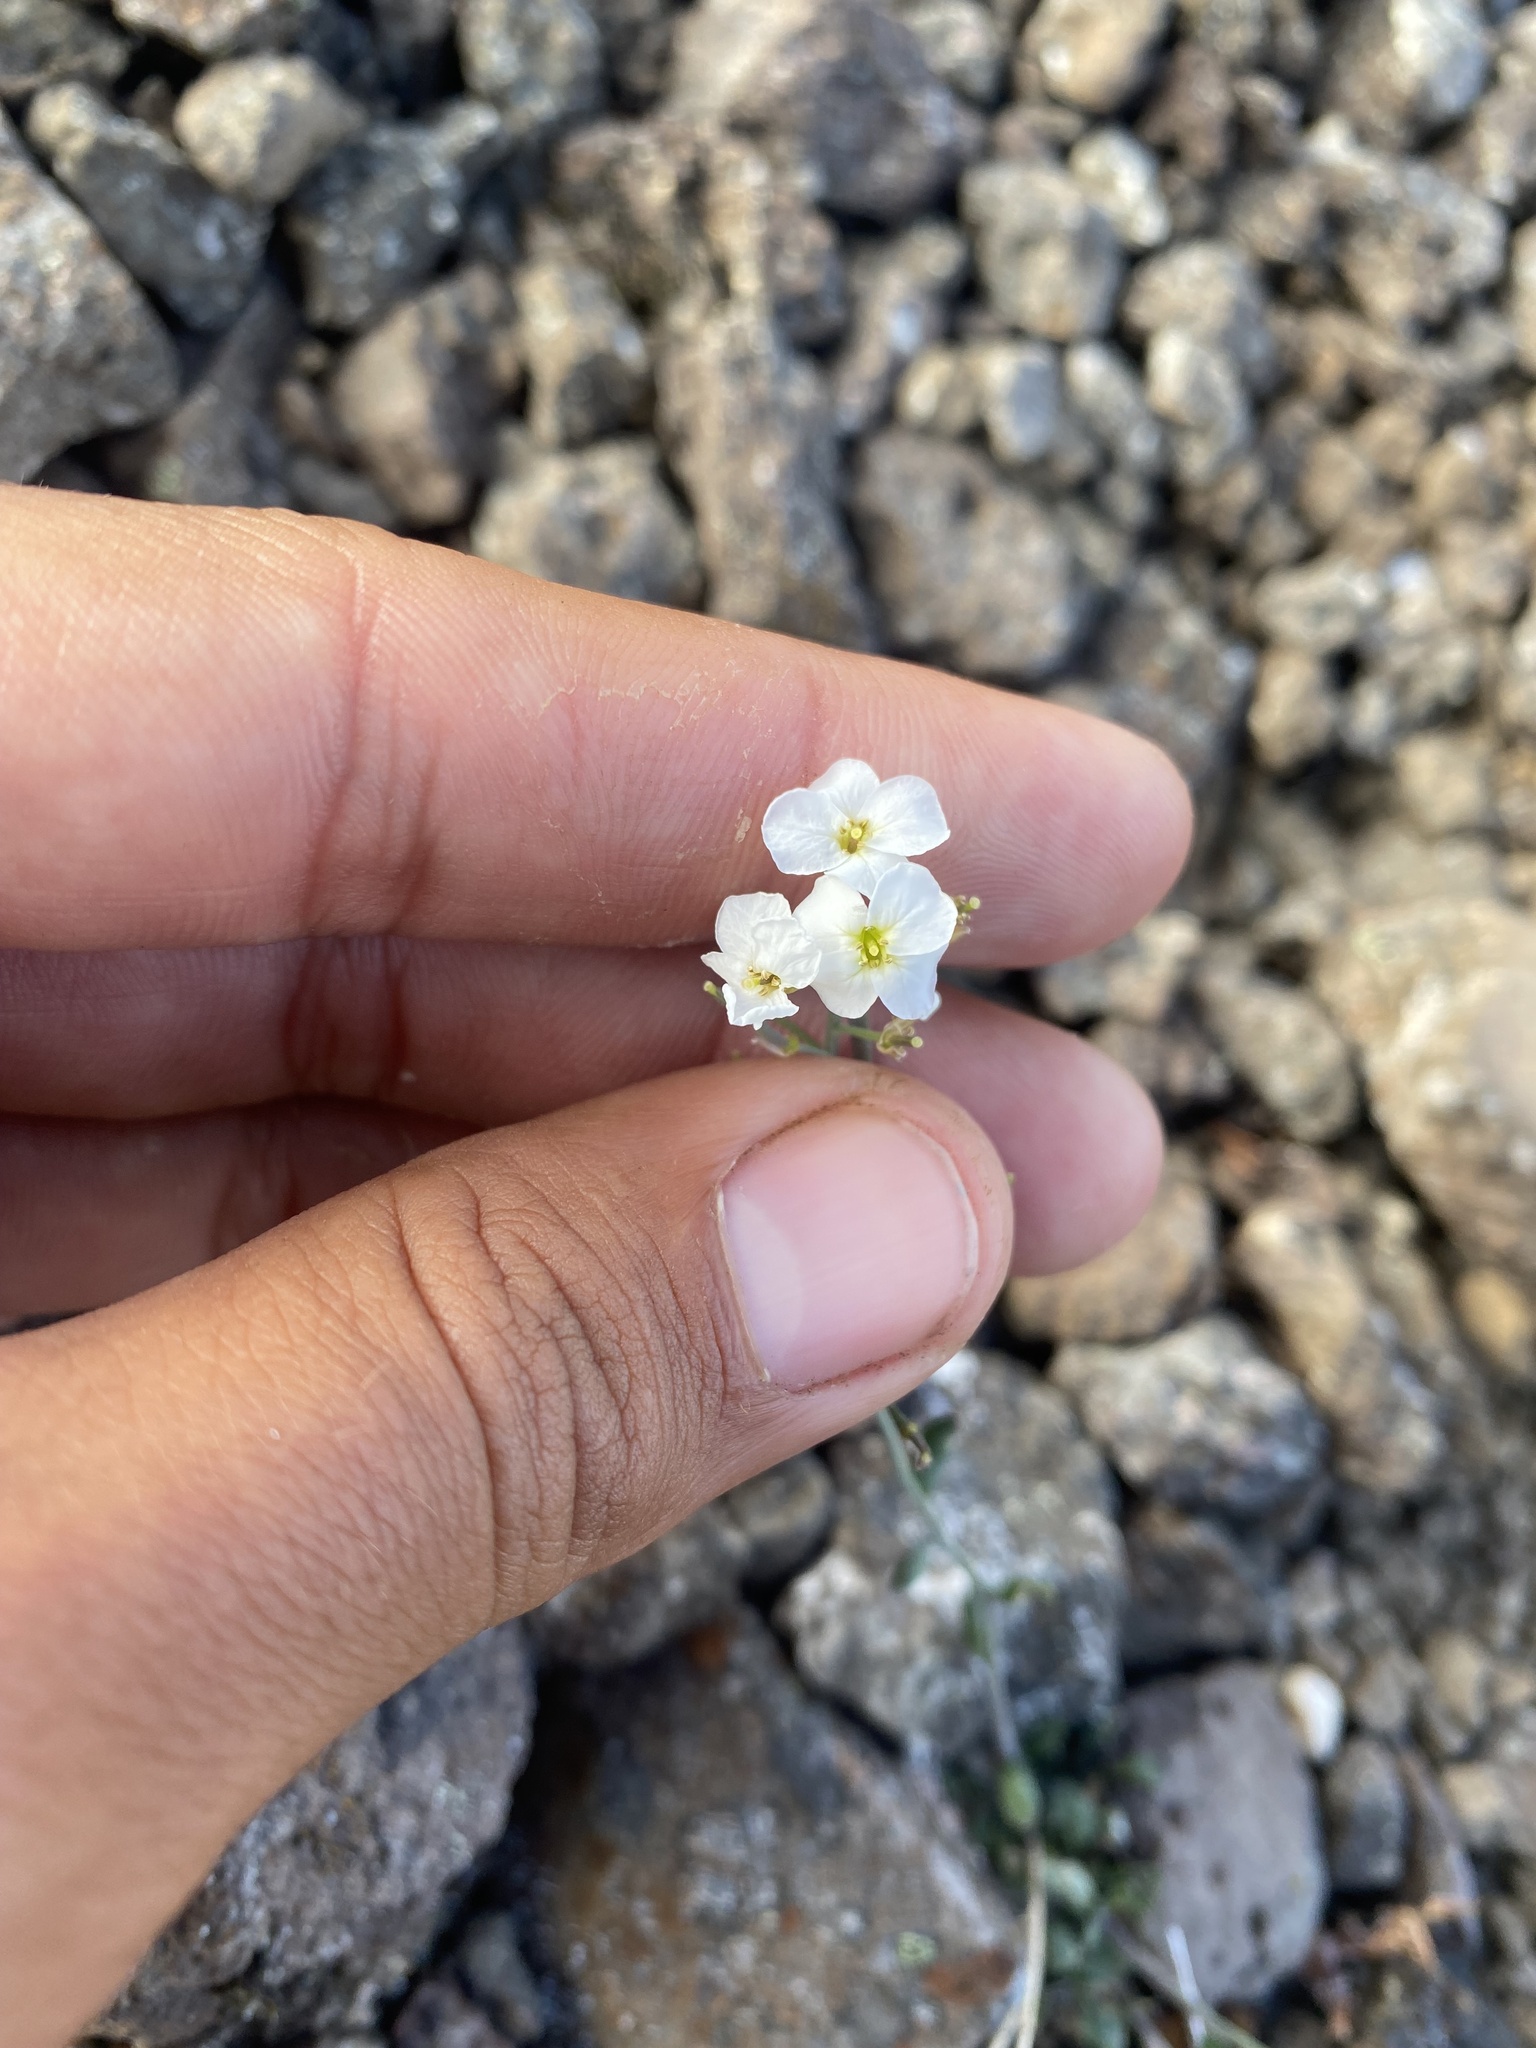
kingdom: Plantae
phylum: Tracheophyta
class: Magnoliopsida
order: Brassicales
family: Brassicaceae
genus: Arabidopsis
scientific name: Arabidopsis lyrata
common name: Lyrate rockcress
